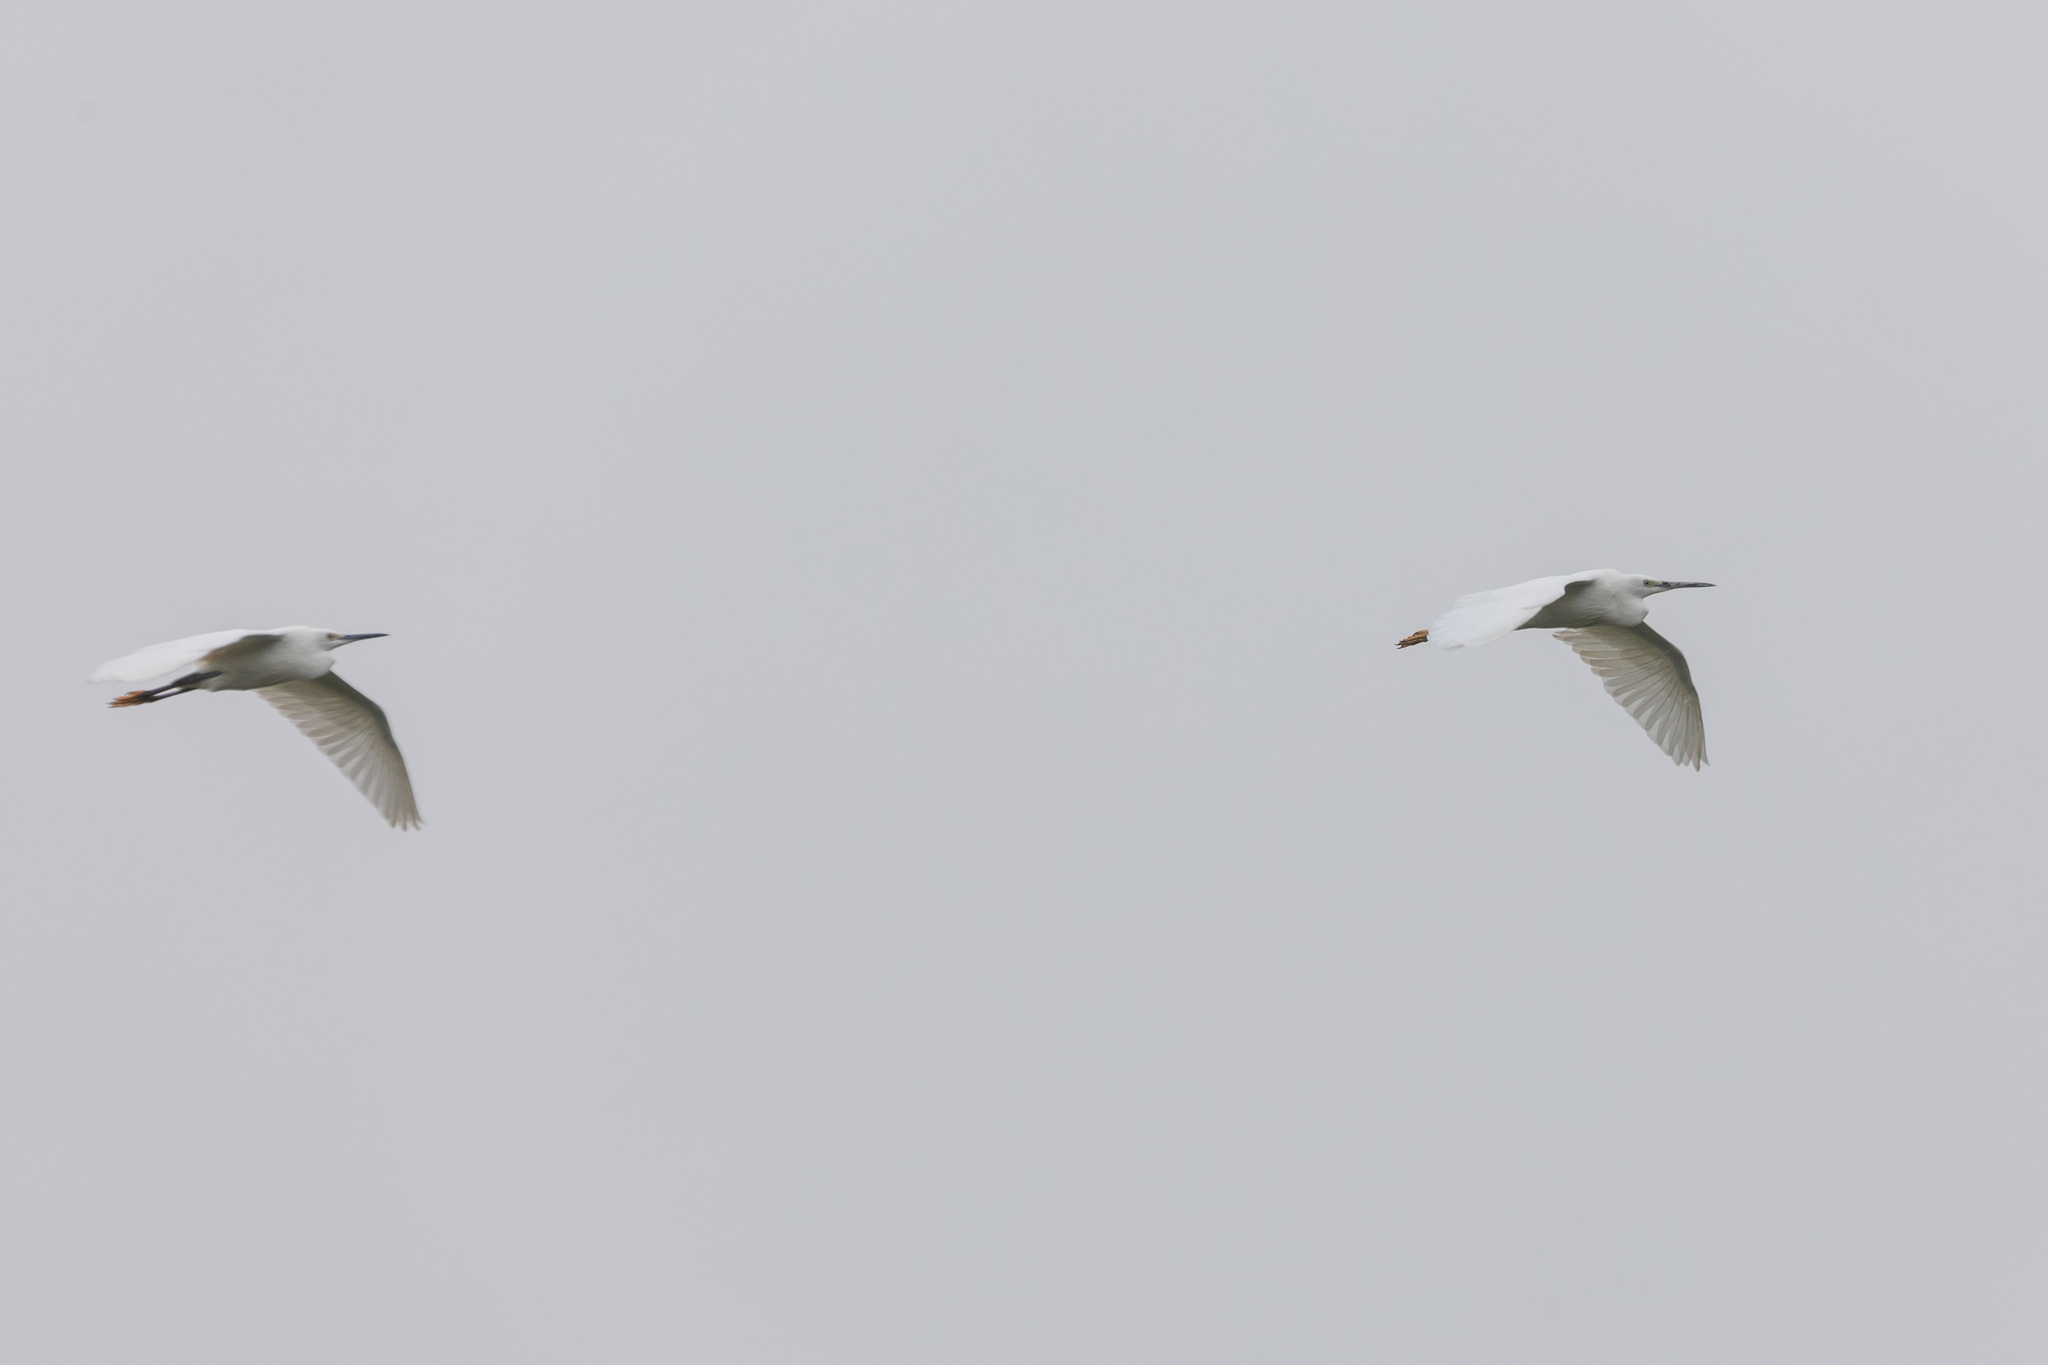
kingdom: Animalia
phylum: Chordata
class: Aves
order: Pelecaniformes
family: Ardeidae
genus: Egretta
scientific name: Egretta garzetta
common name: Little egret
